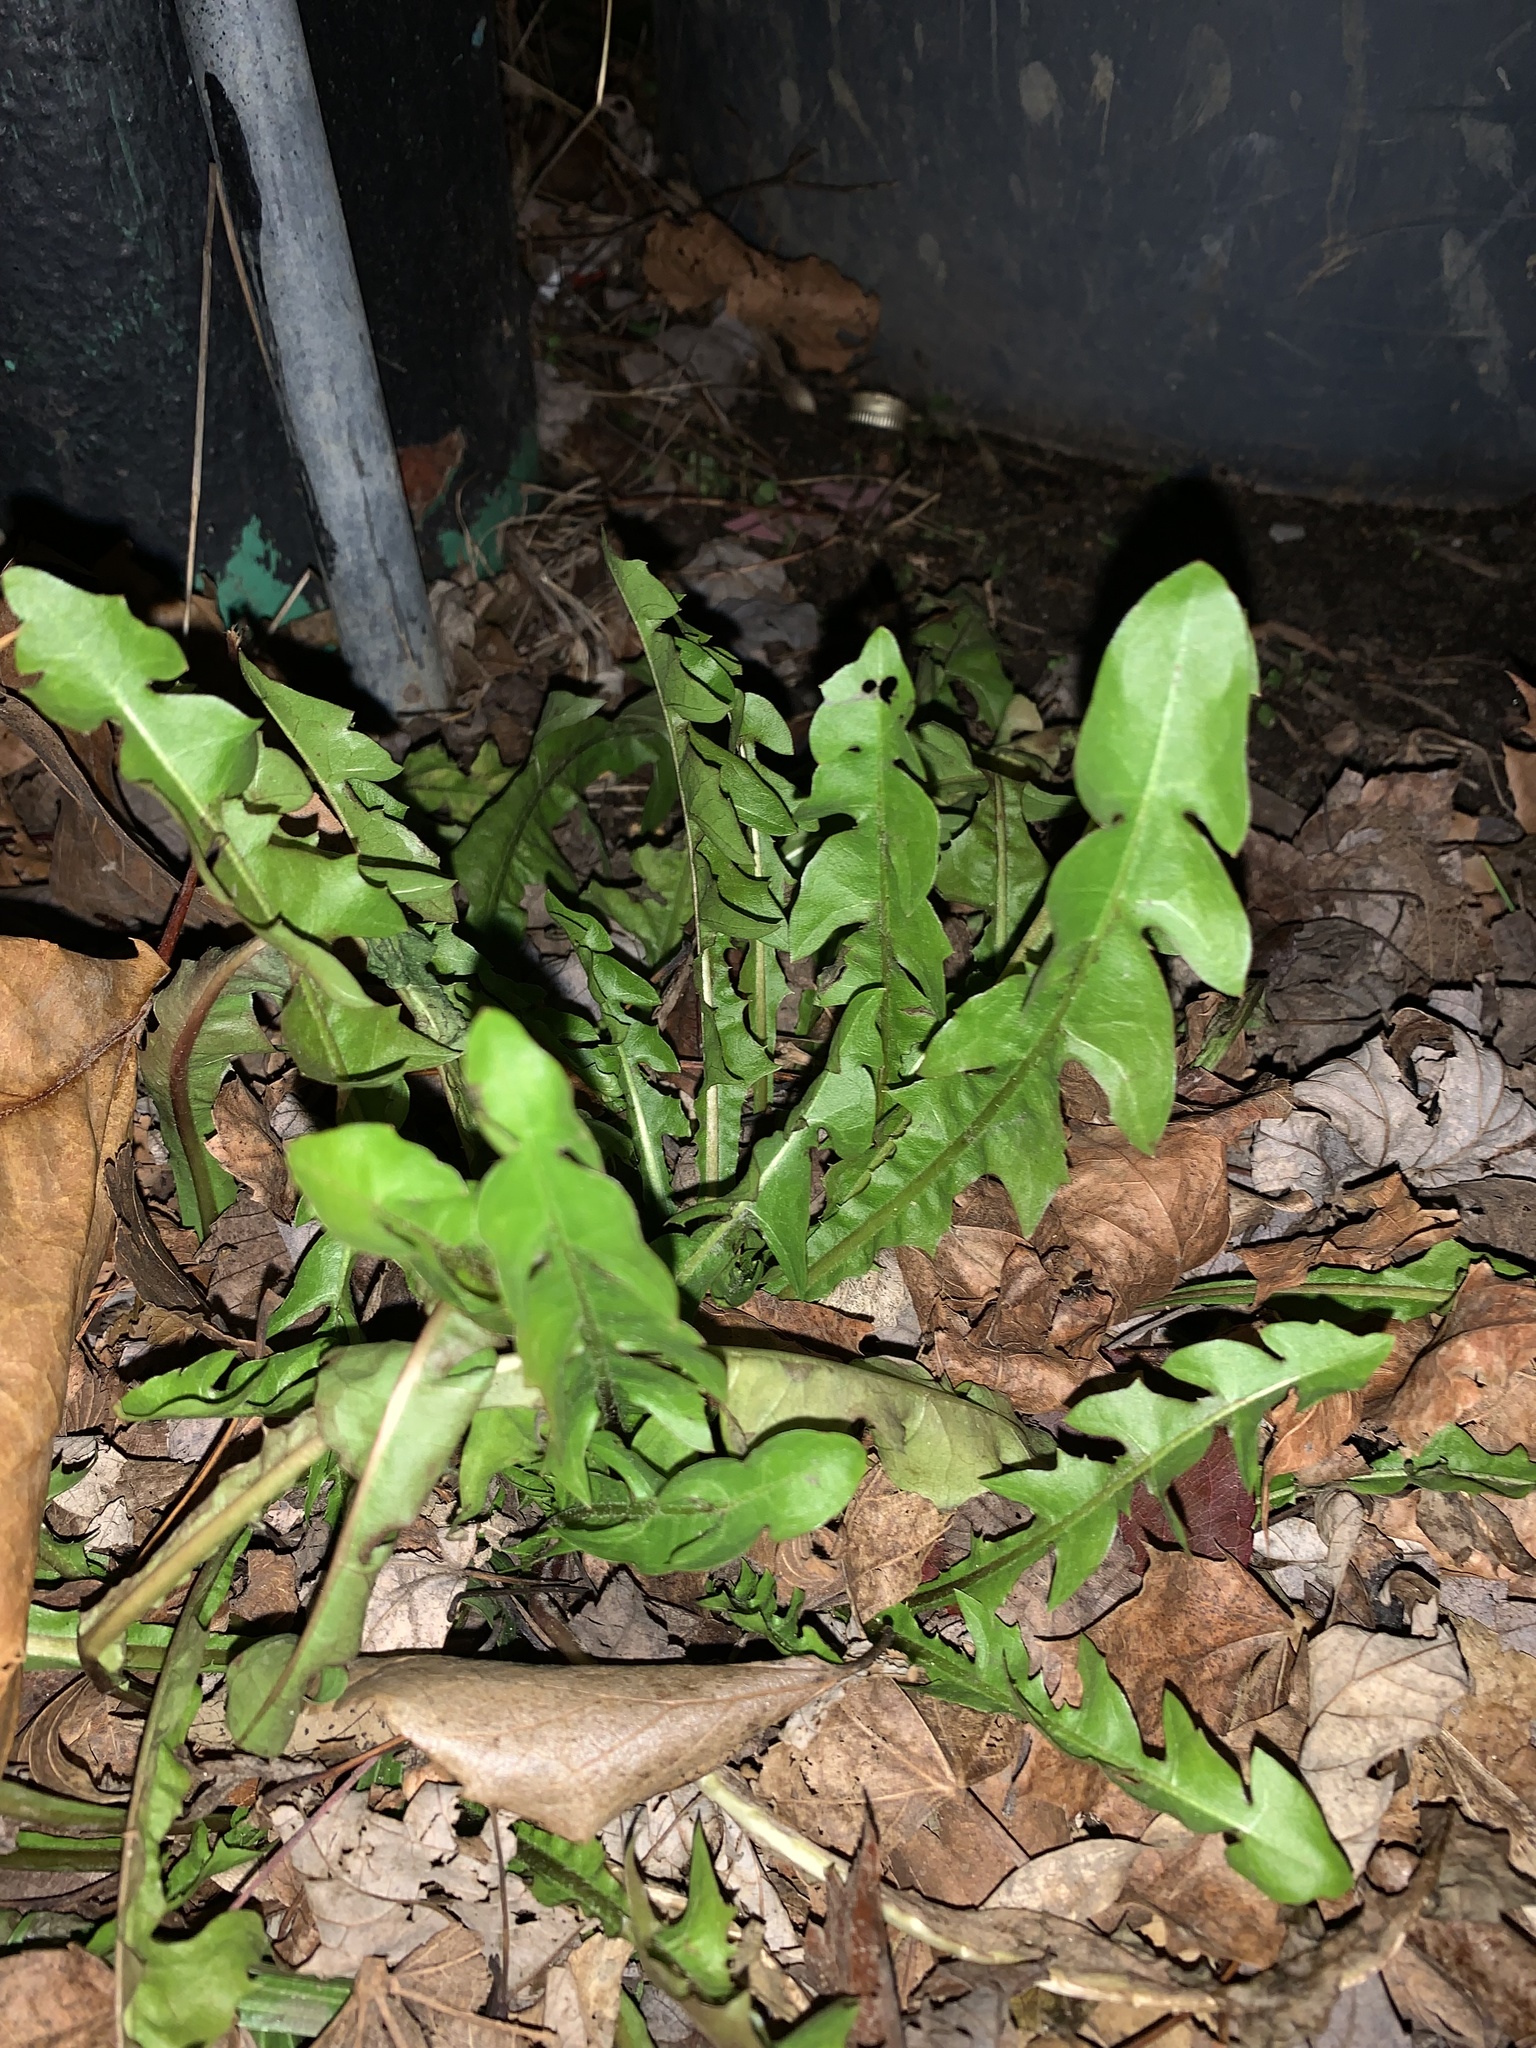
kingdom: Plantae
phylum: Tracheophyta
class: Magnoliopsida
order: Asterales
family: Asteraceae
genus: Taraxacum
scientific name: Taraxacum officinale
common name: Common dandelion
